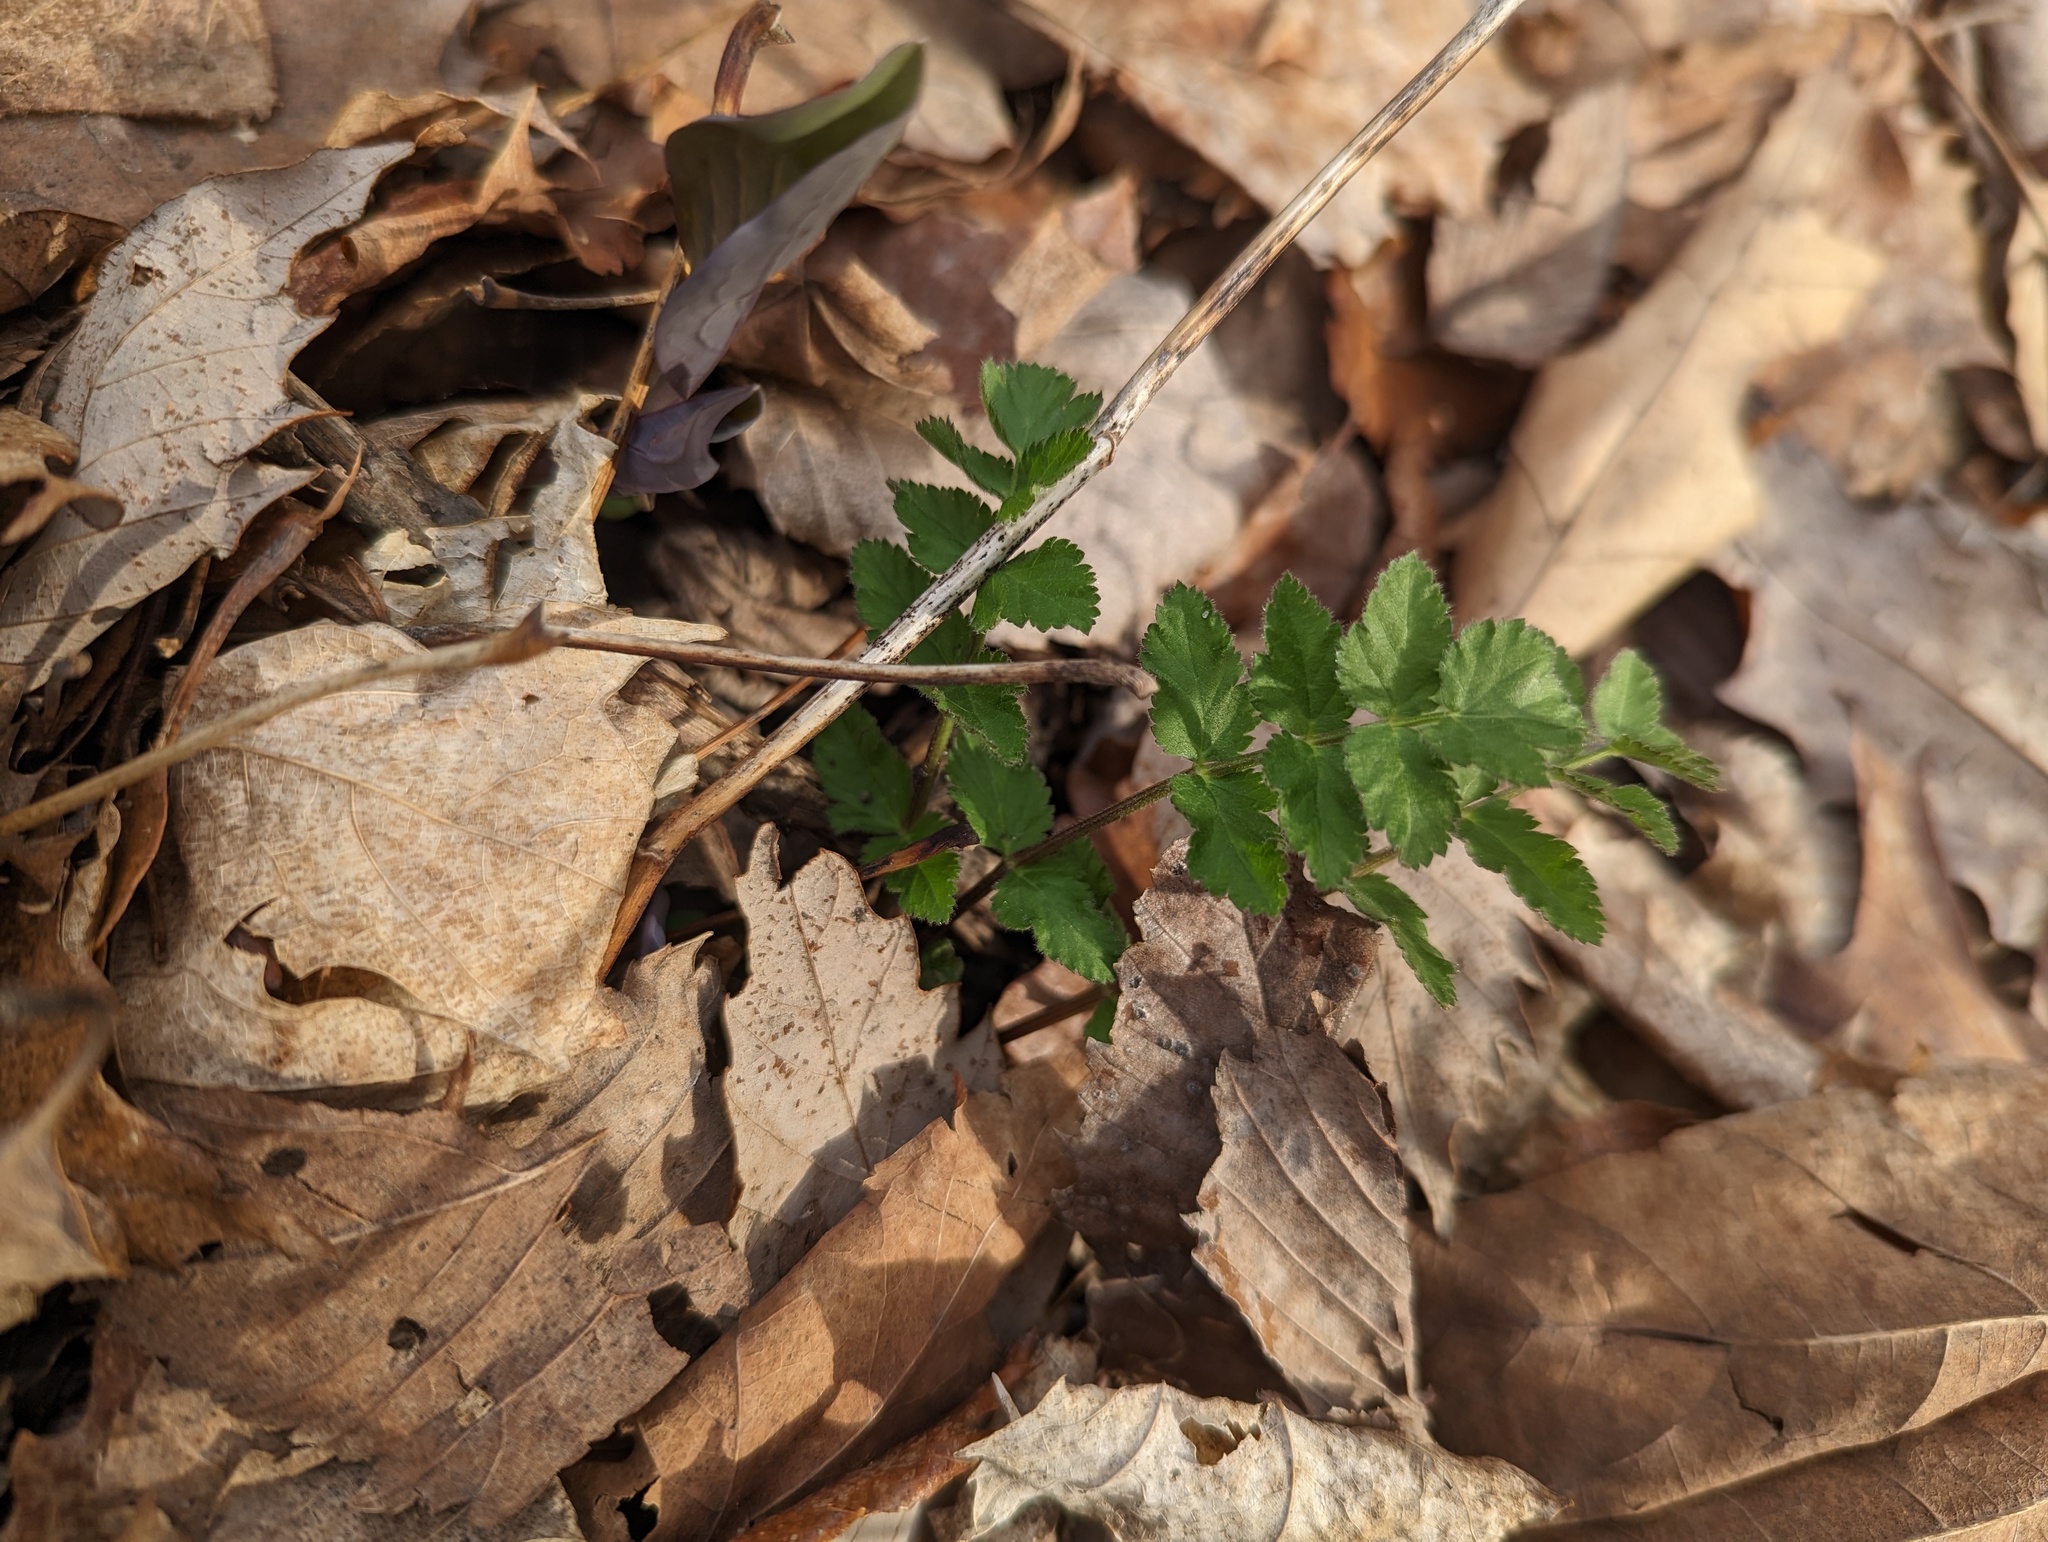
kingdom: Plantae
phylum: Tracheophyta
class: Magnoliopsida
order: Apiales
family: Apiaceae
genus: Berula
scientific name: Berula erecta
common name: Lesser water-parsnip
